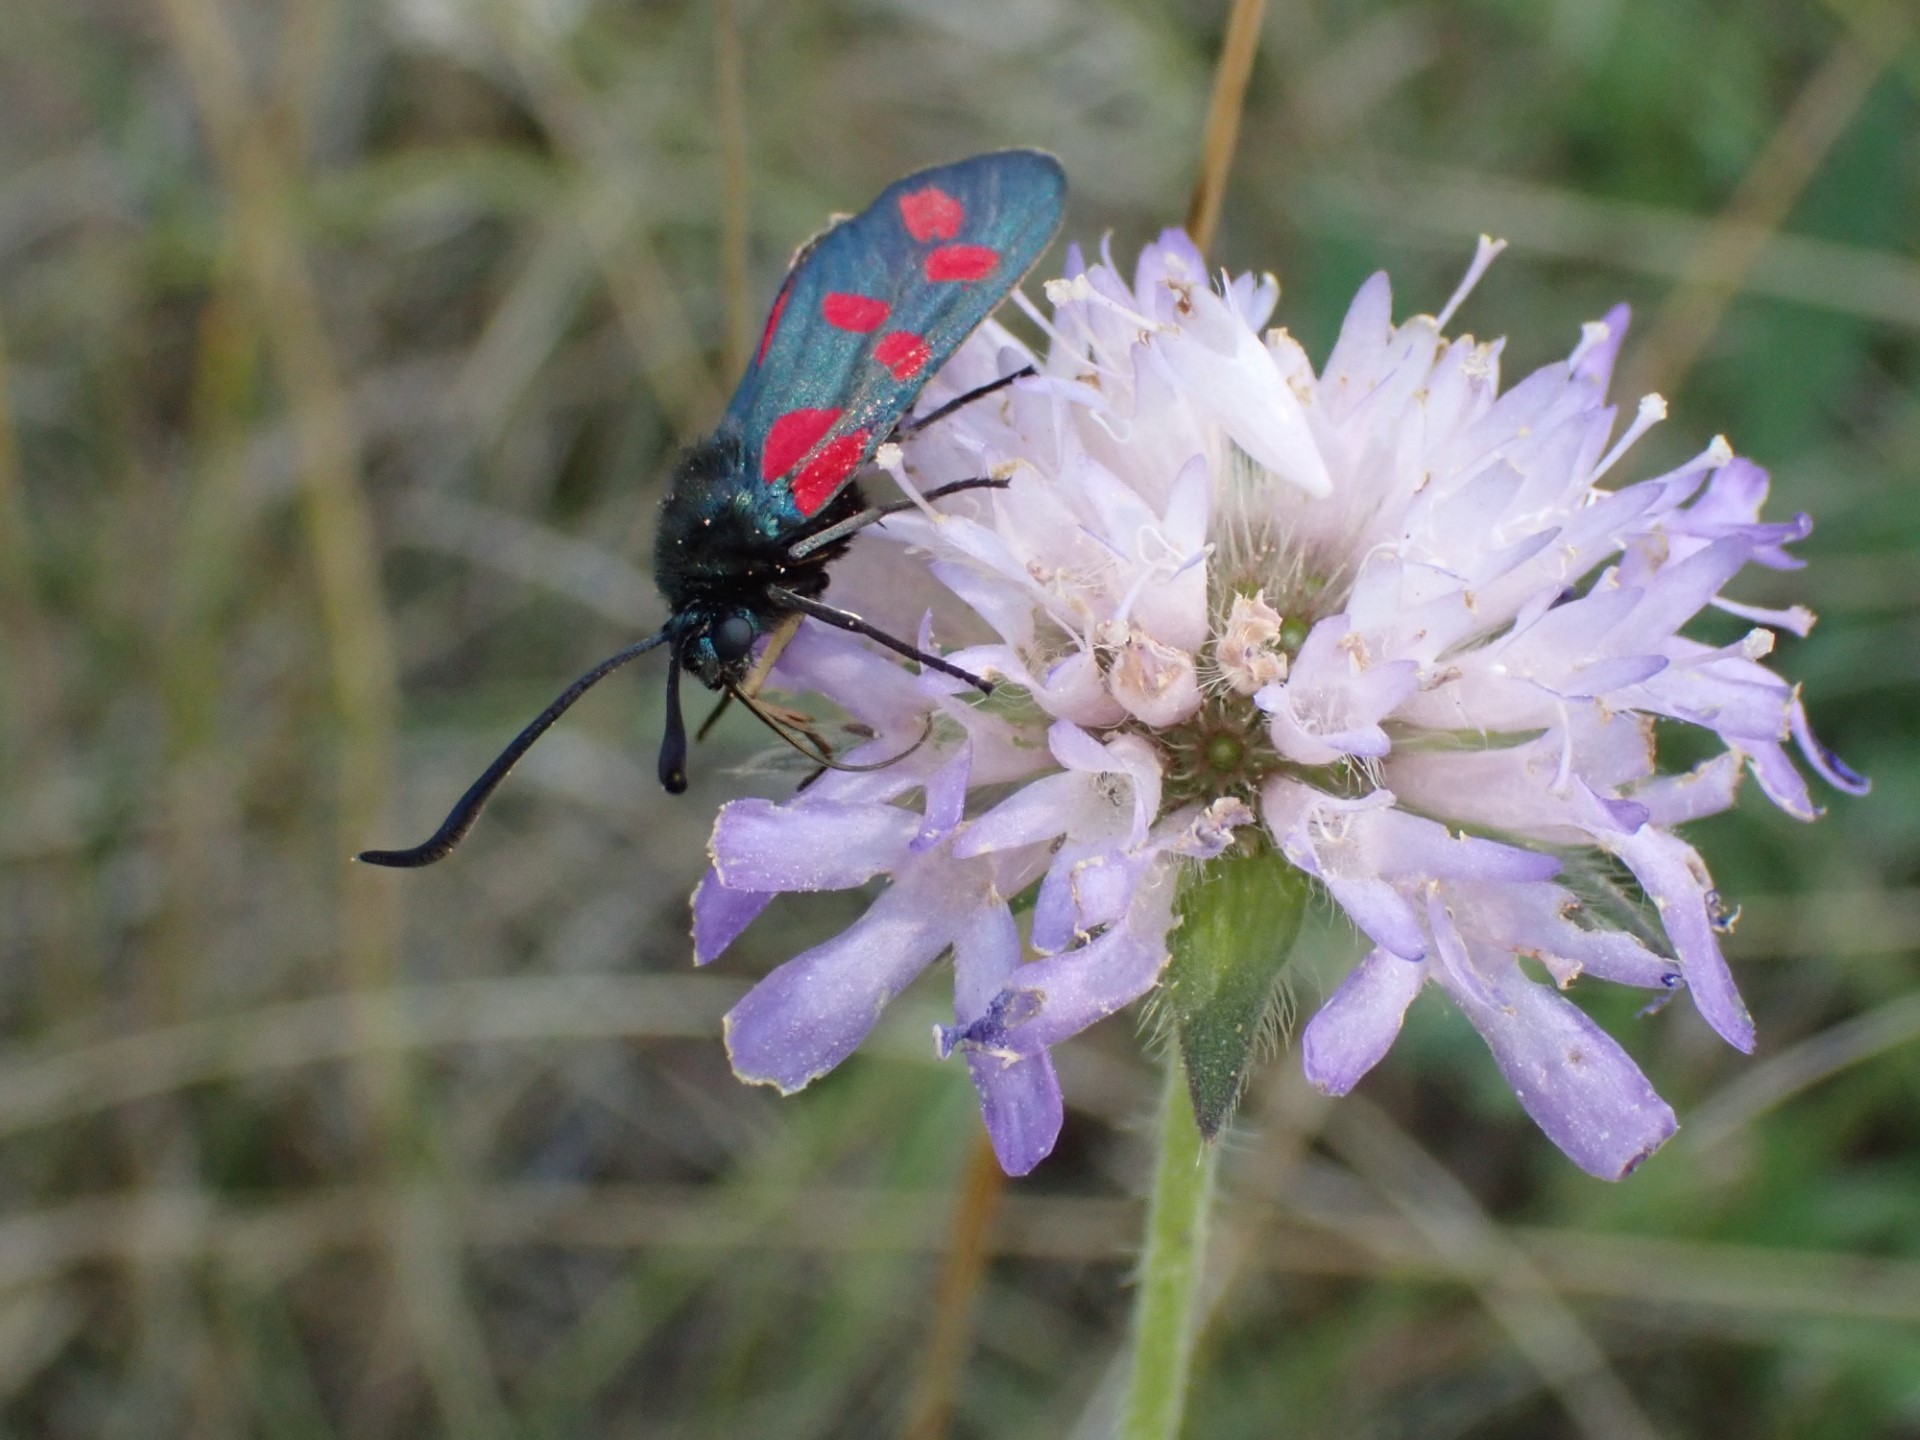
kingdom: Animalia
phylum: Arthropoda
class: Insecta
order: Lepidoptera
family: Zygaenidae
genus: Zygaena
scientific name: Zygaena filipendulae
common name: Six-spot burnet
